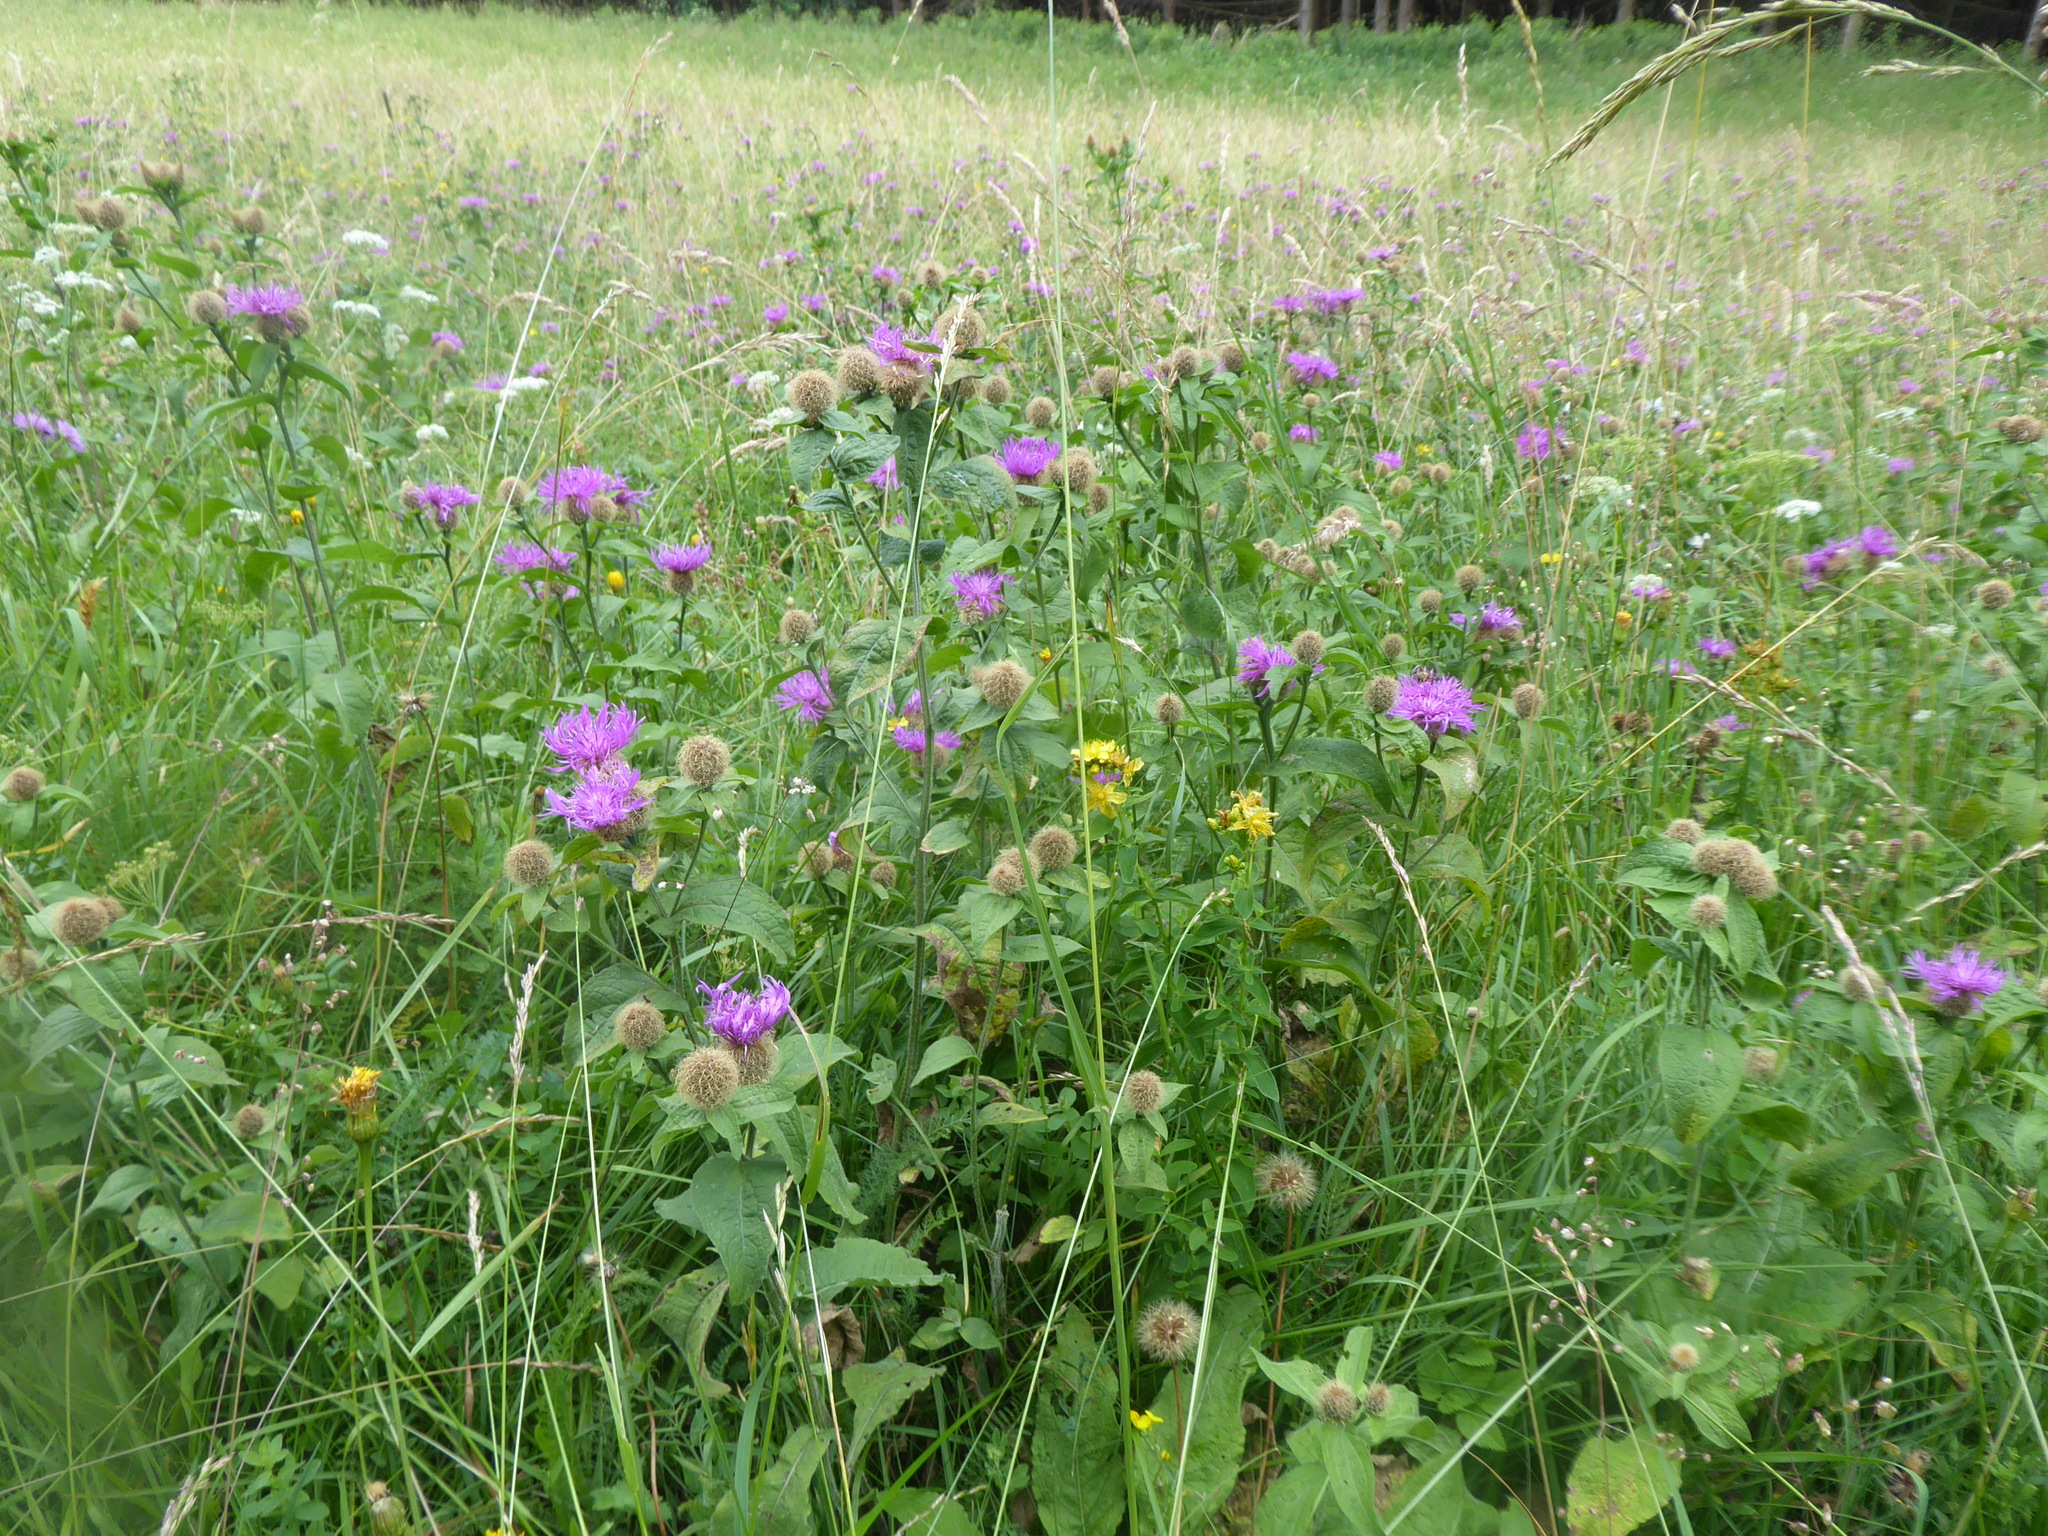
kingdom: Plantae
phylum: Tracheophyta
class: Magnoliopsida
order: Asterales
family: Asteraceae
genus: Centaurea
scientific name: Centaurea pseudophrygia
